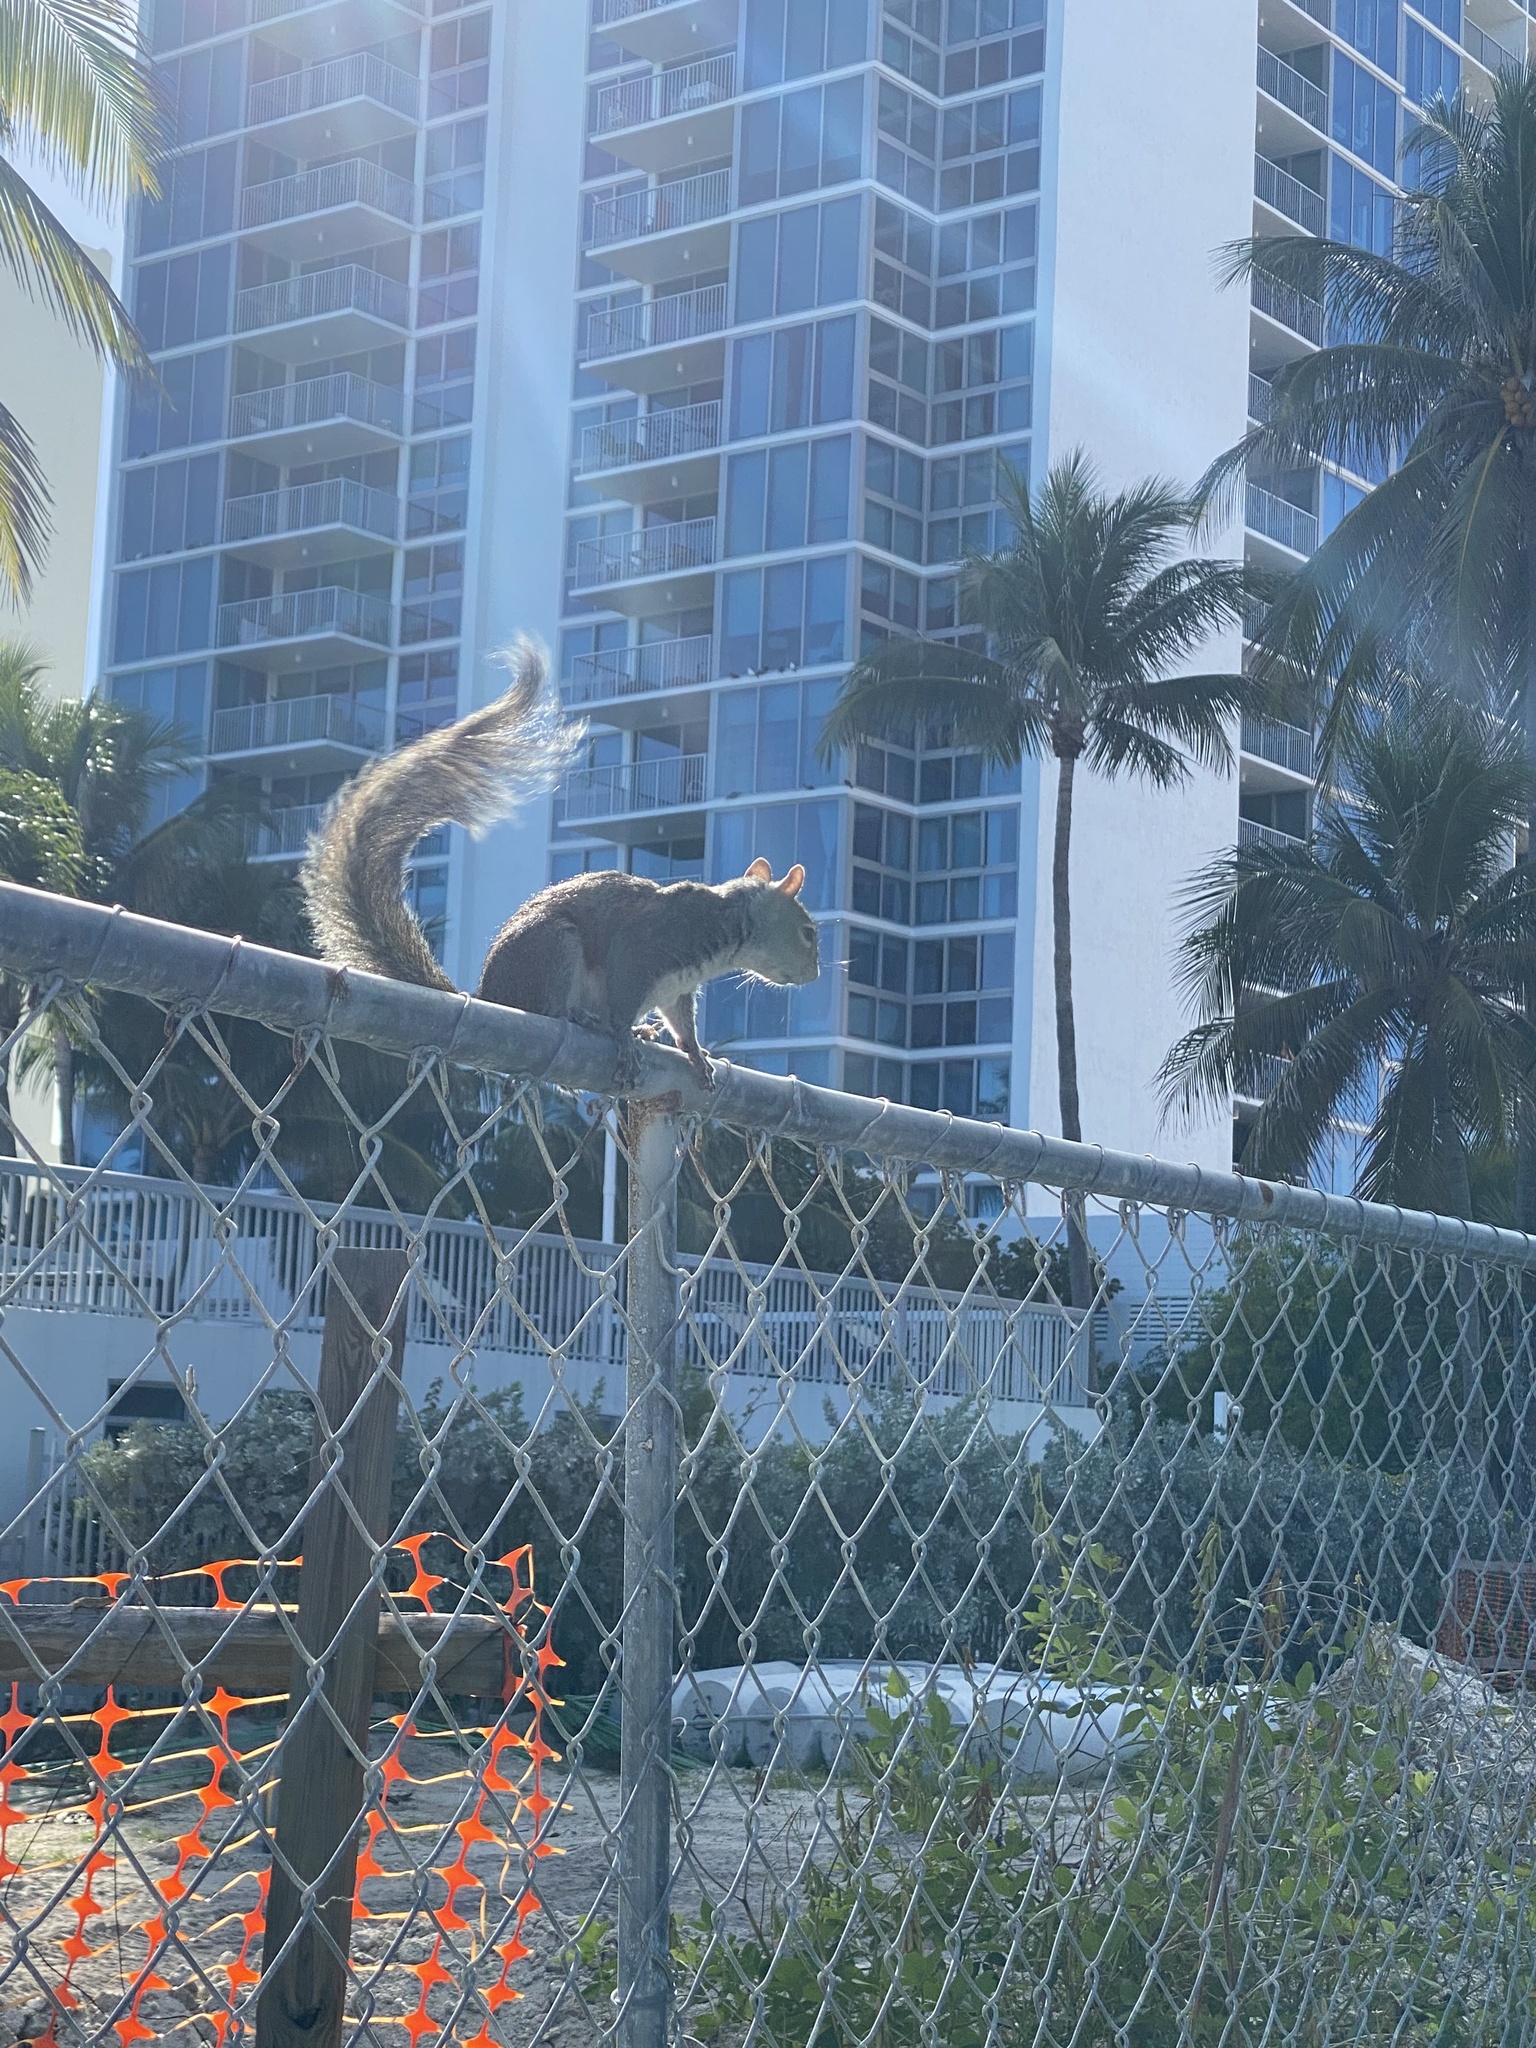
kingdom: Animalia
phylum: Chordata
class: Mammalia
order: Rodentia
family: Sciuridae
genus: Sciurus
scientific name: Sciurus carolinensis
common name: Eastern gray squirrel
